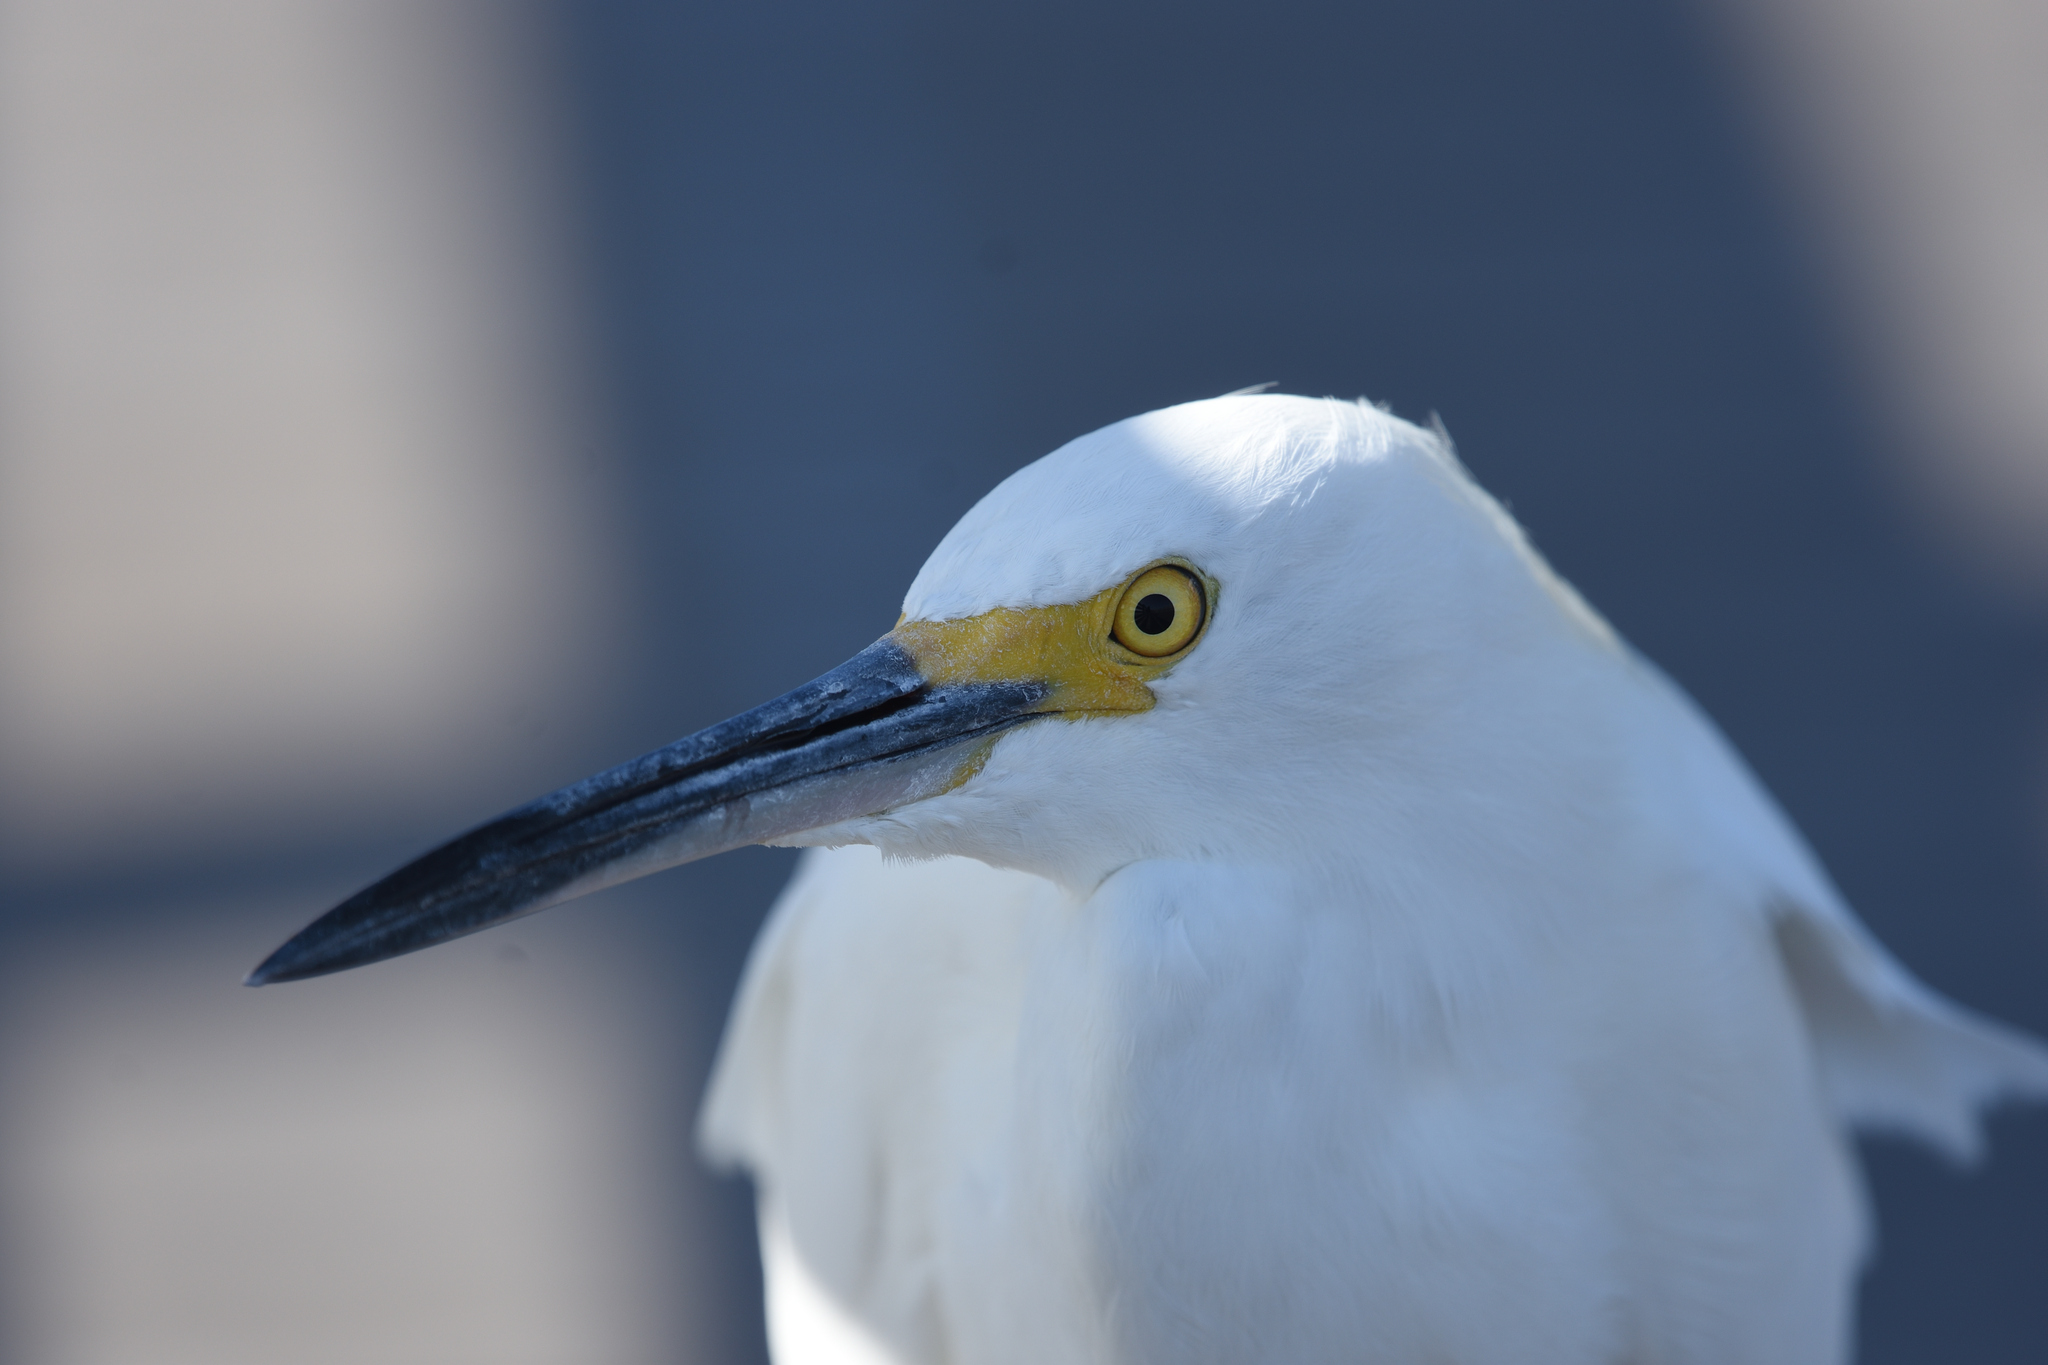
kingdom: Animalia
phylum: Chordata
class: Aves
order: Pelecaniformes
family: Ardeidae
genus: Egretta
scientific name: Egretta thula
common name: Snowy egret
